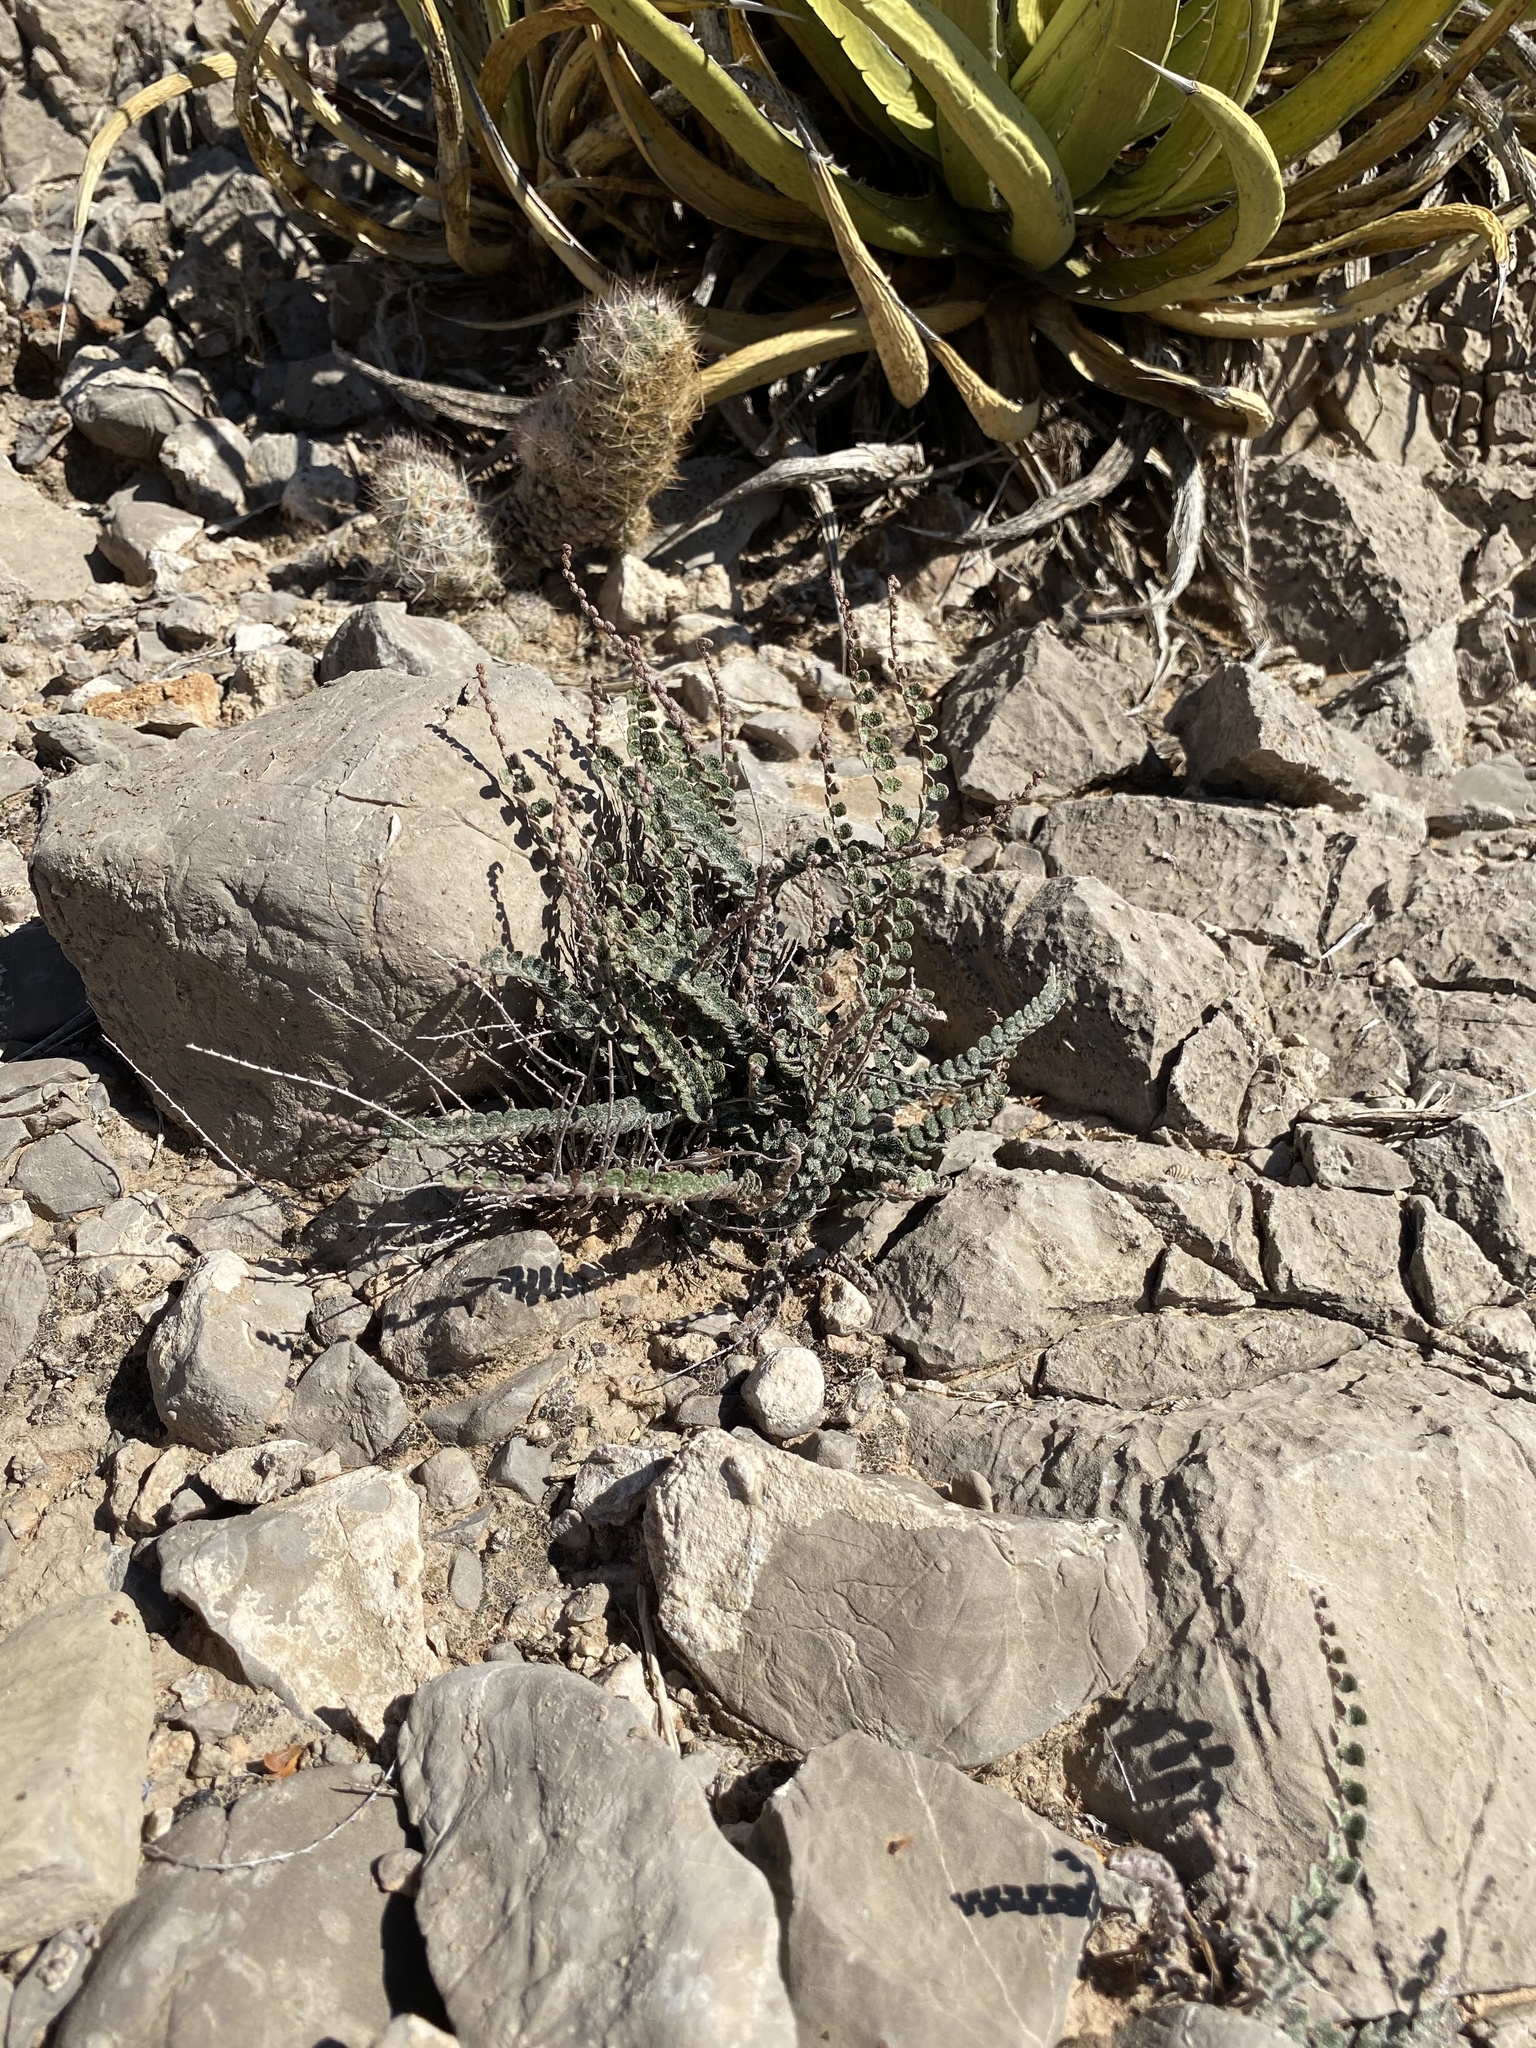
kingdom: Plantae
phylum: Tracheophyta
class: Polypodiopsida
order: Polypodiales
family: Pteridaceae
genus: Astrolepis
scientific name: Astrolepis cochisensis
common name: Scaly cloak fern
